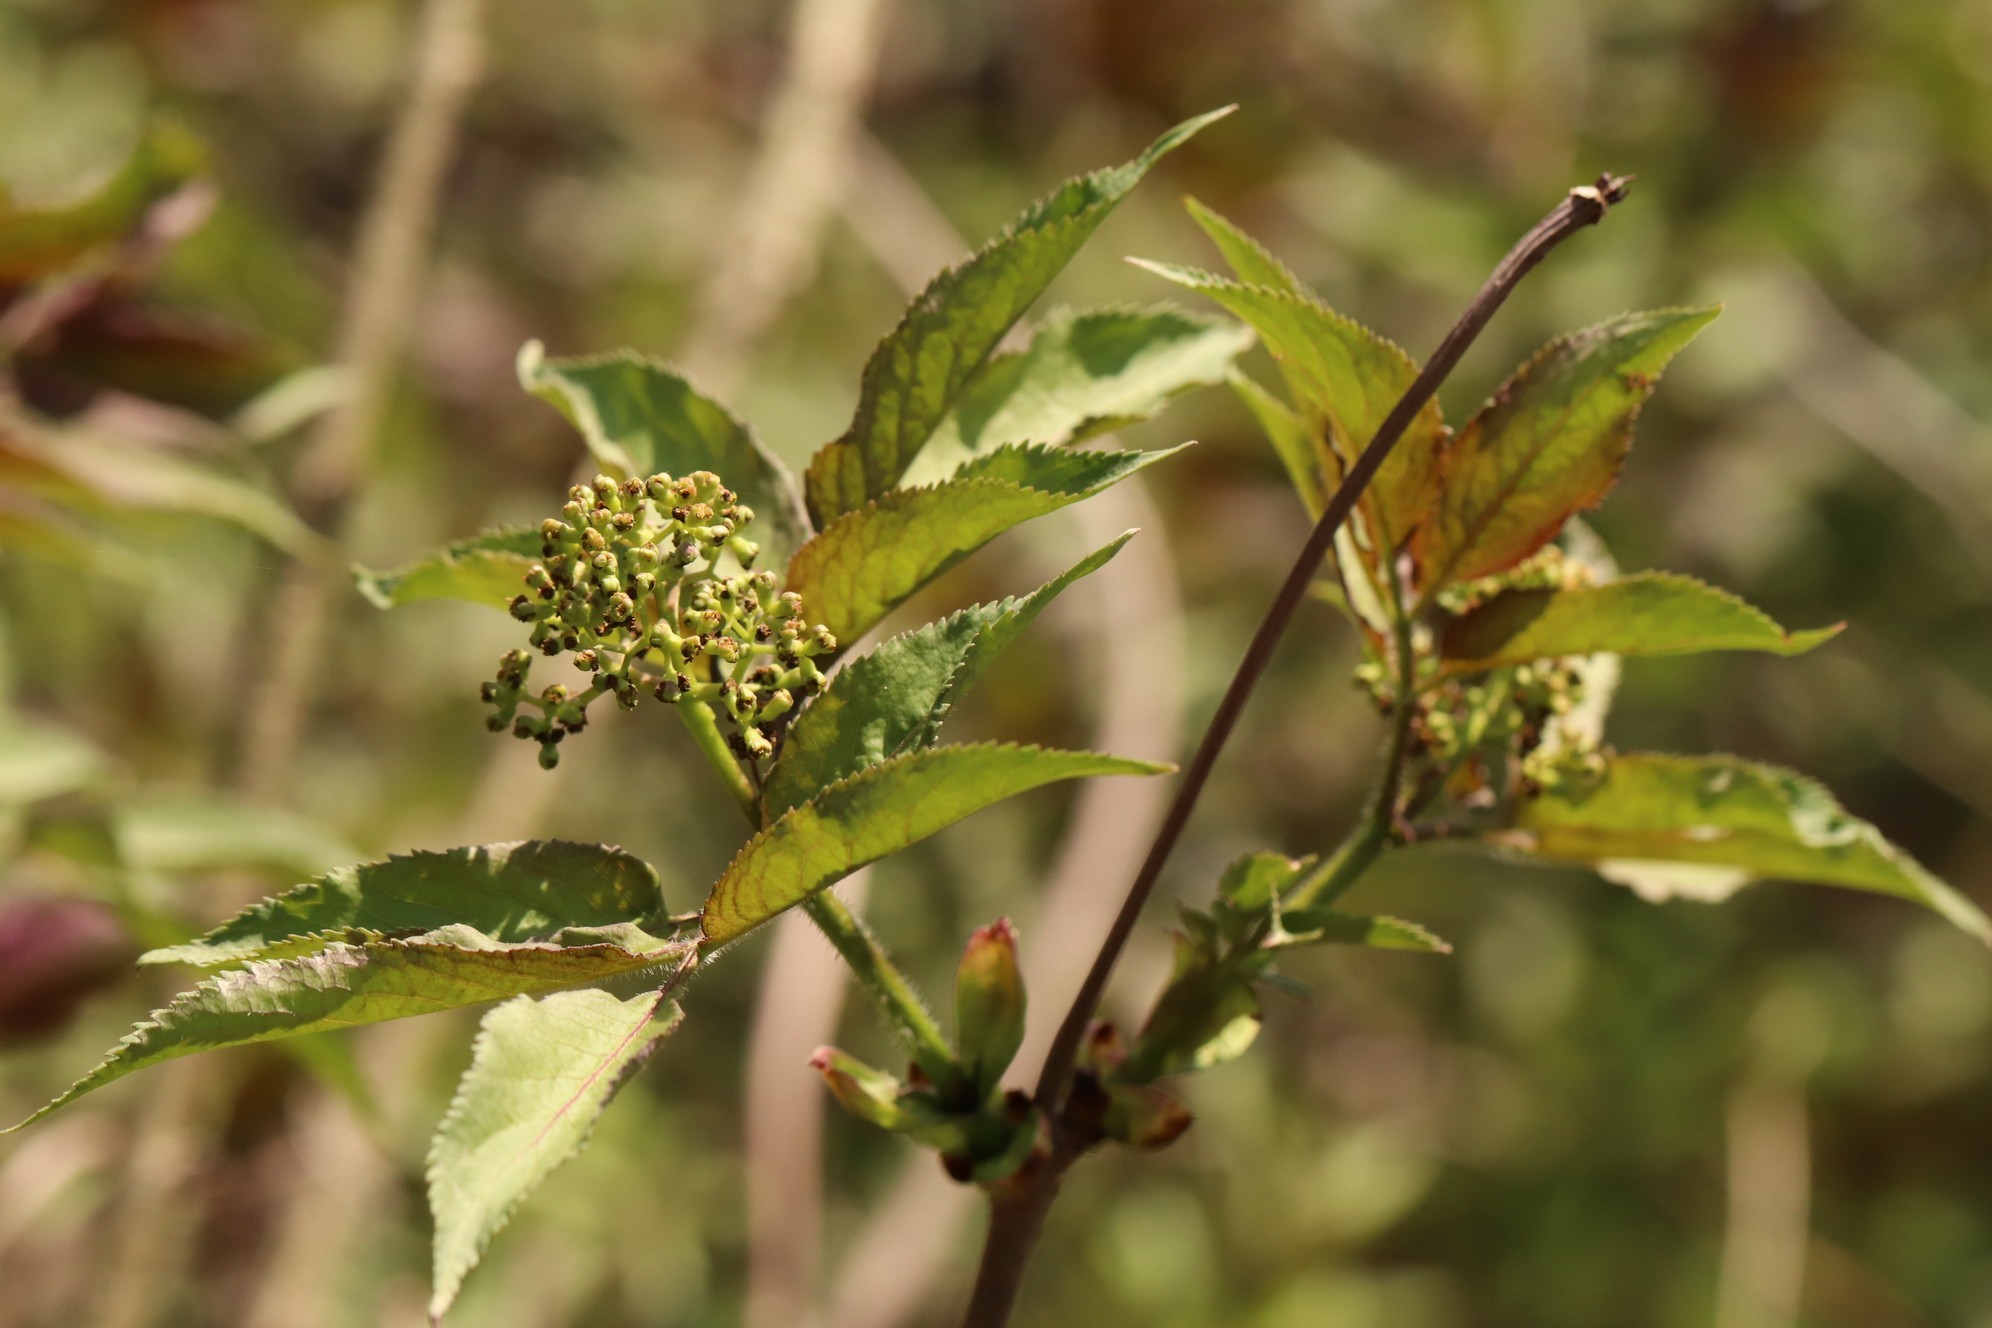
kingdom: Plantae
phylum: Tracheophyta
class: Magnoliopsida
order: Dipsacales
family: Viburnaceae
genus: Sambucus
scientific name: Sambucus sibirica
